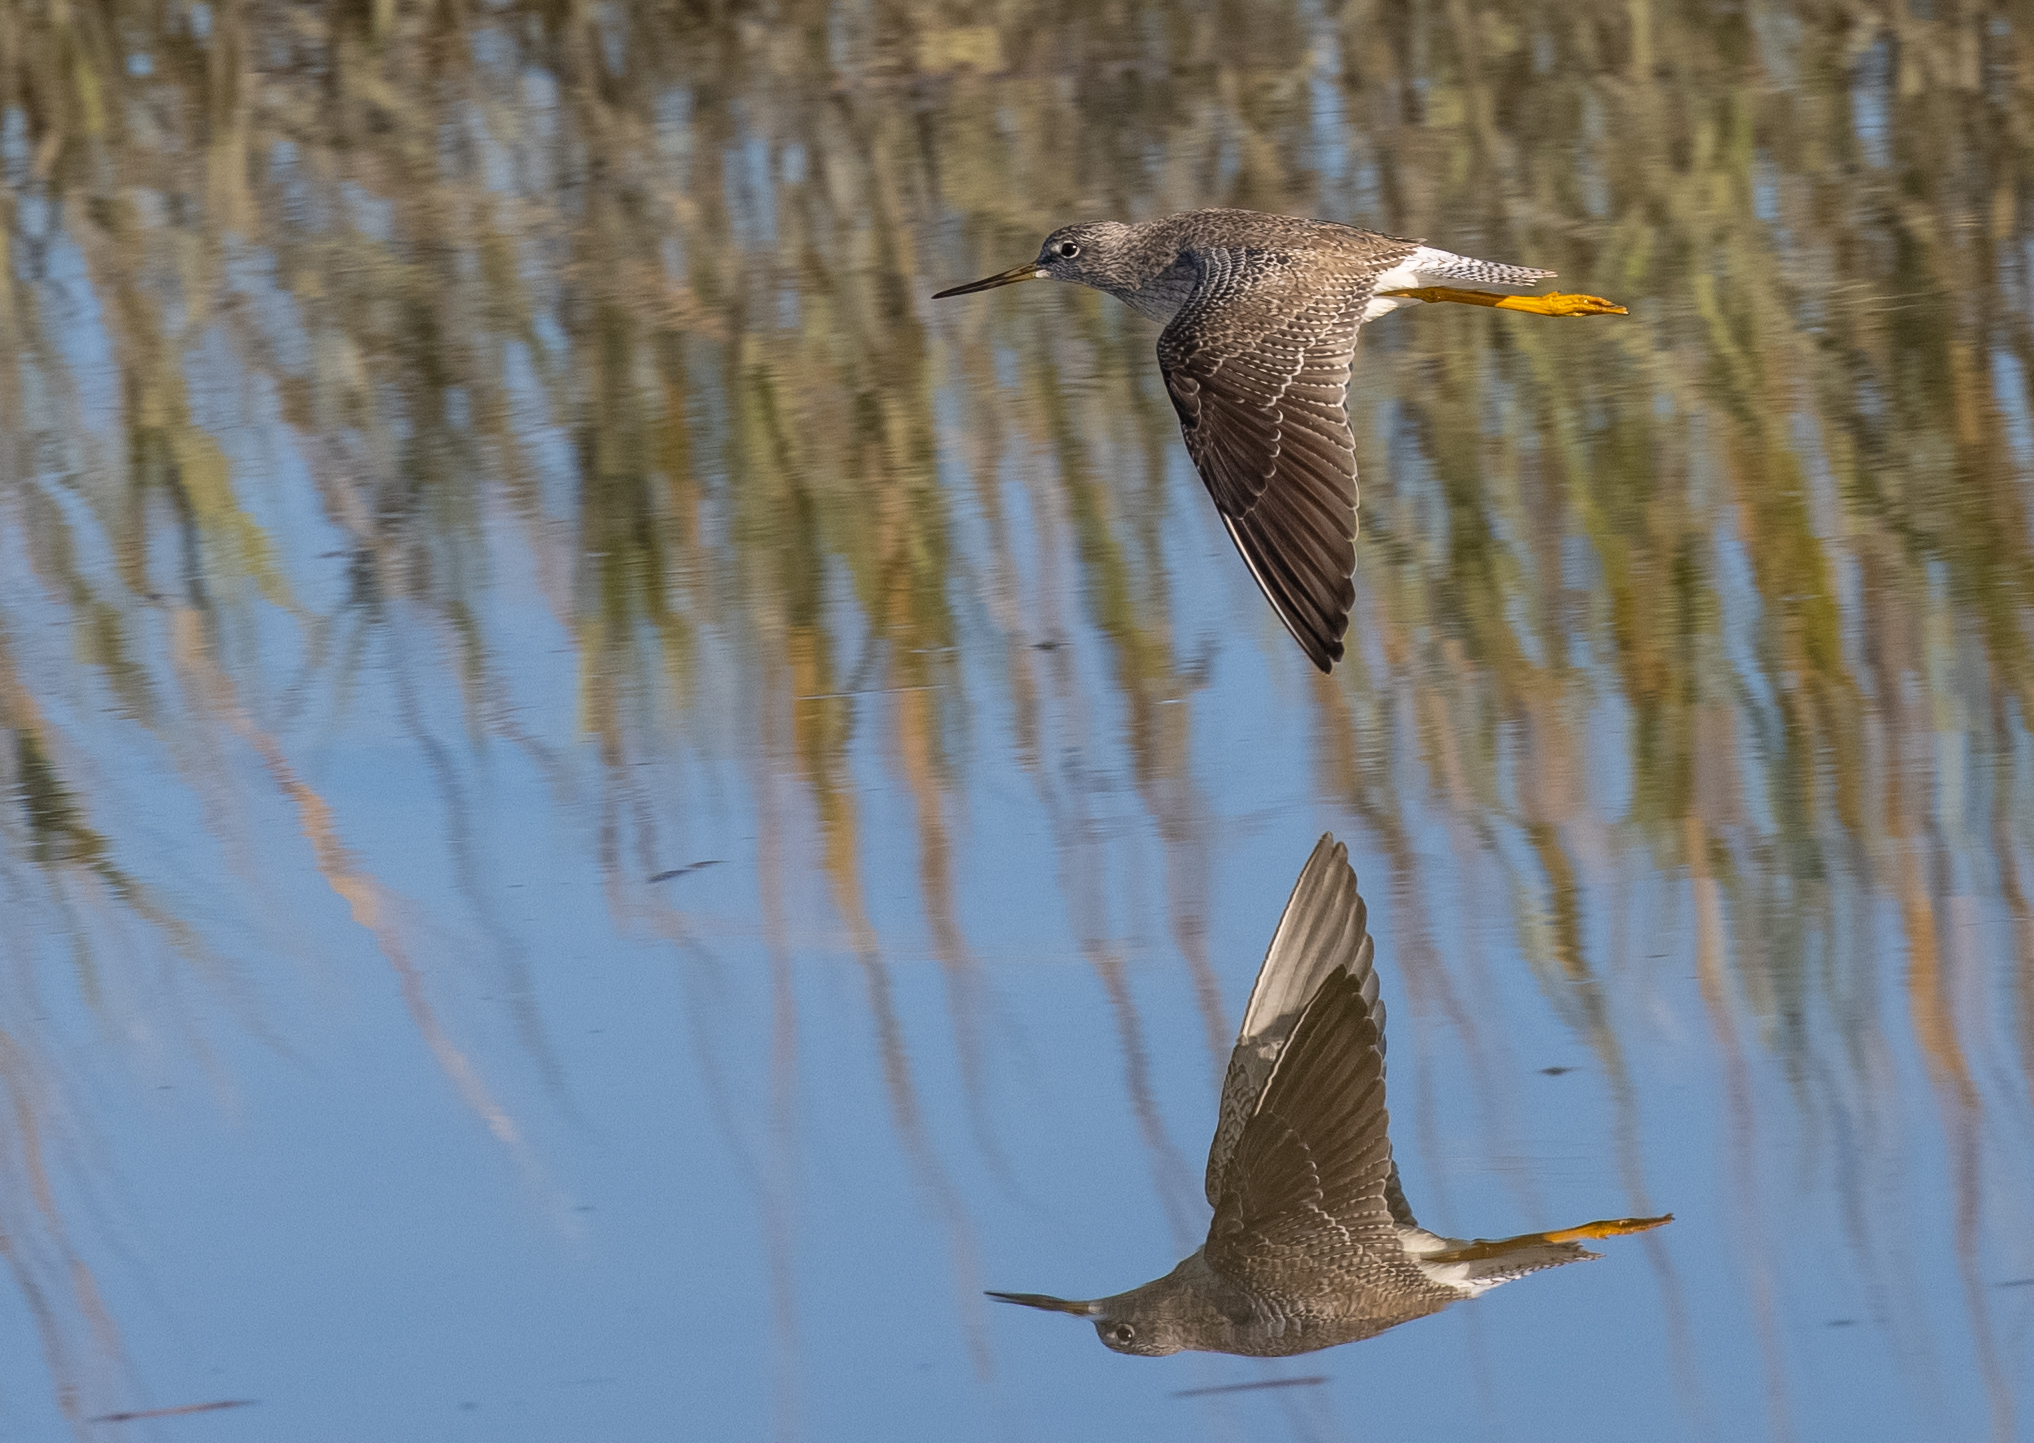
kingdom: Animalia
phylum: Chordata
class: Aves
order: Charadriiformes
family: Scolopacidae
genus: Tringa
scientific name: Tringa melanoleuca
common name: Greater yellowlegs
